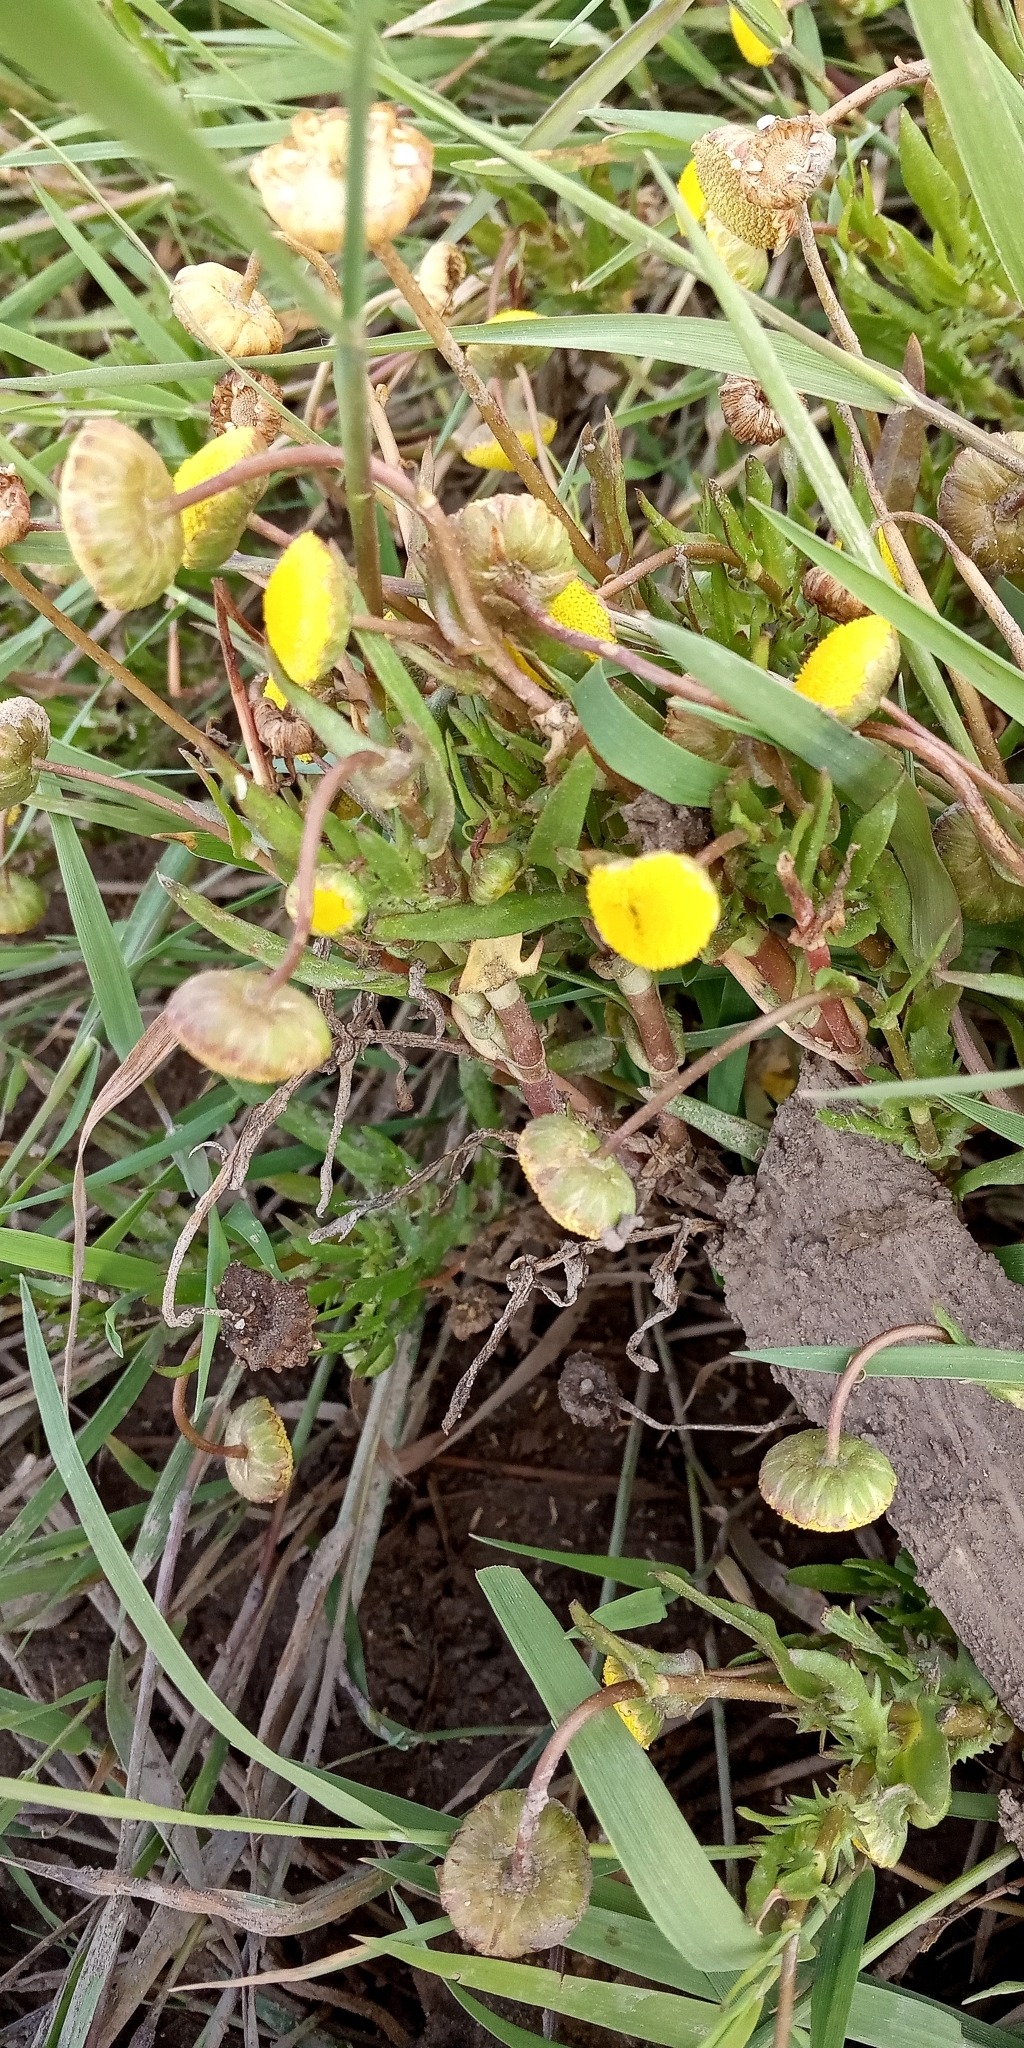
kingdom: Plantae
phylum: Tracheophyta
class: Magnoliopsida
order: Asterales
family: Asteraceae
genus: Cotula
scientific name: Cotula coronopifolia
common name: Buttonweed
